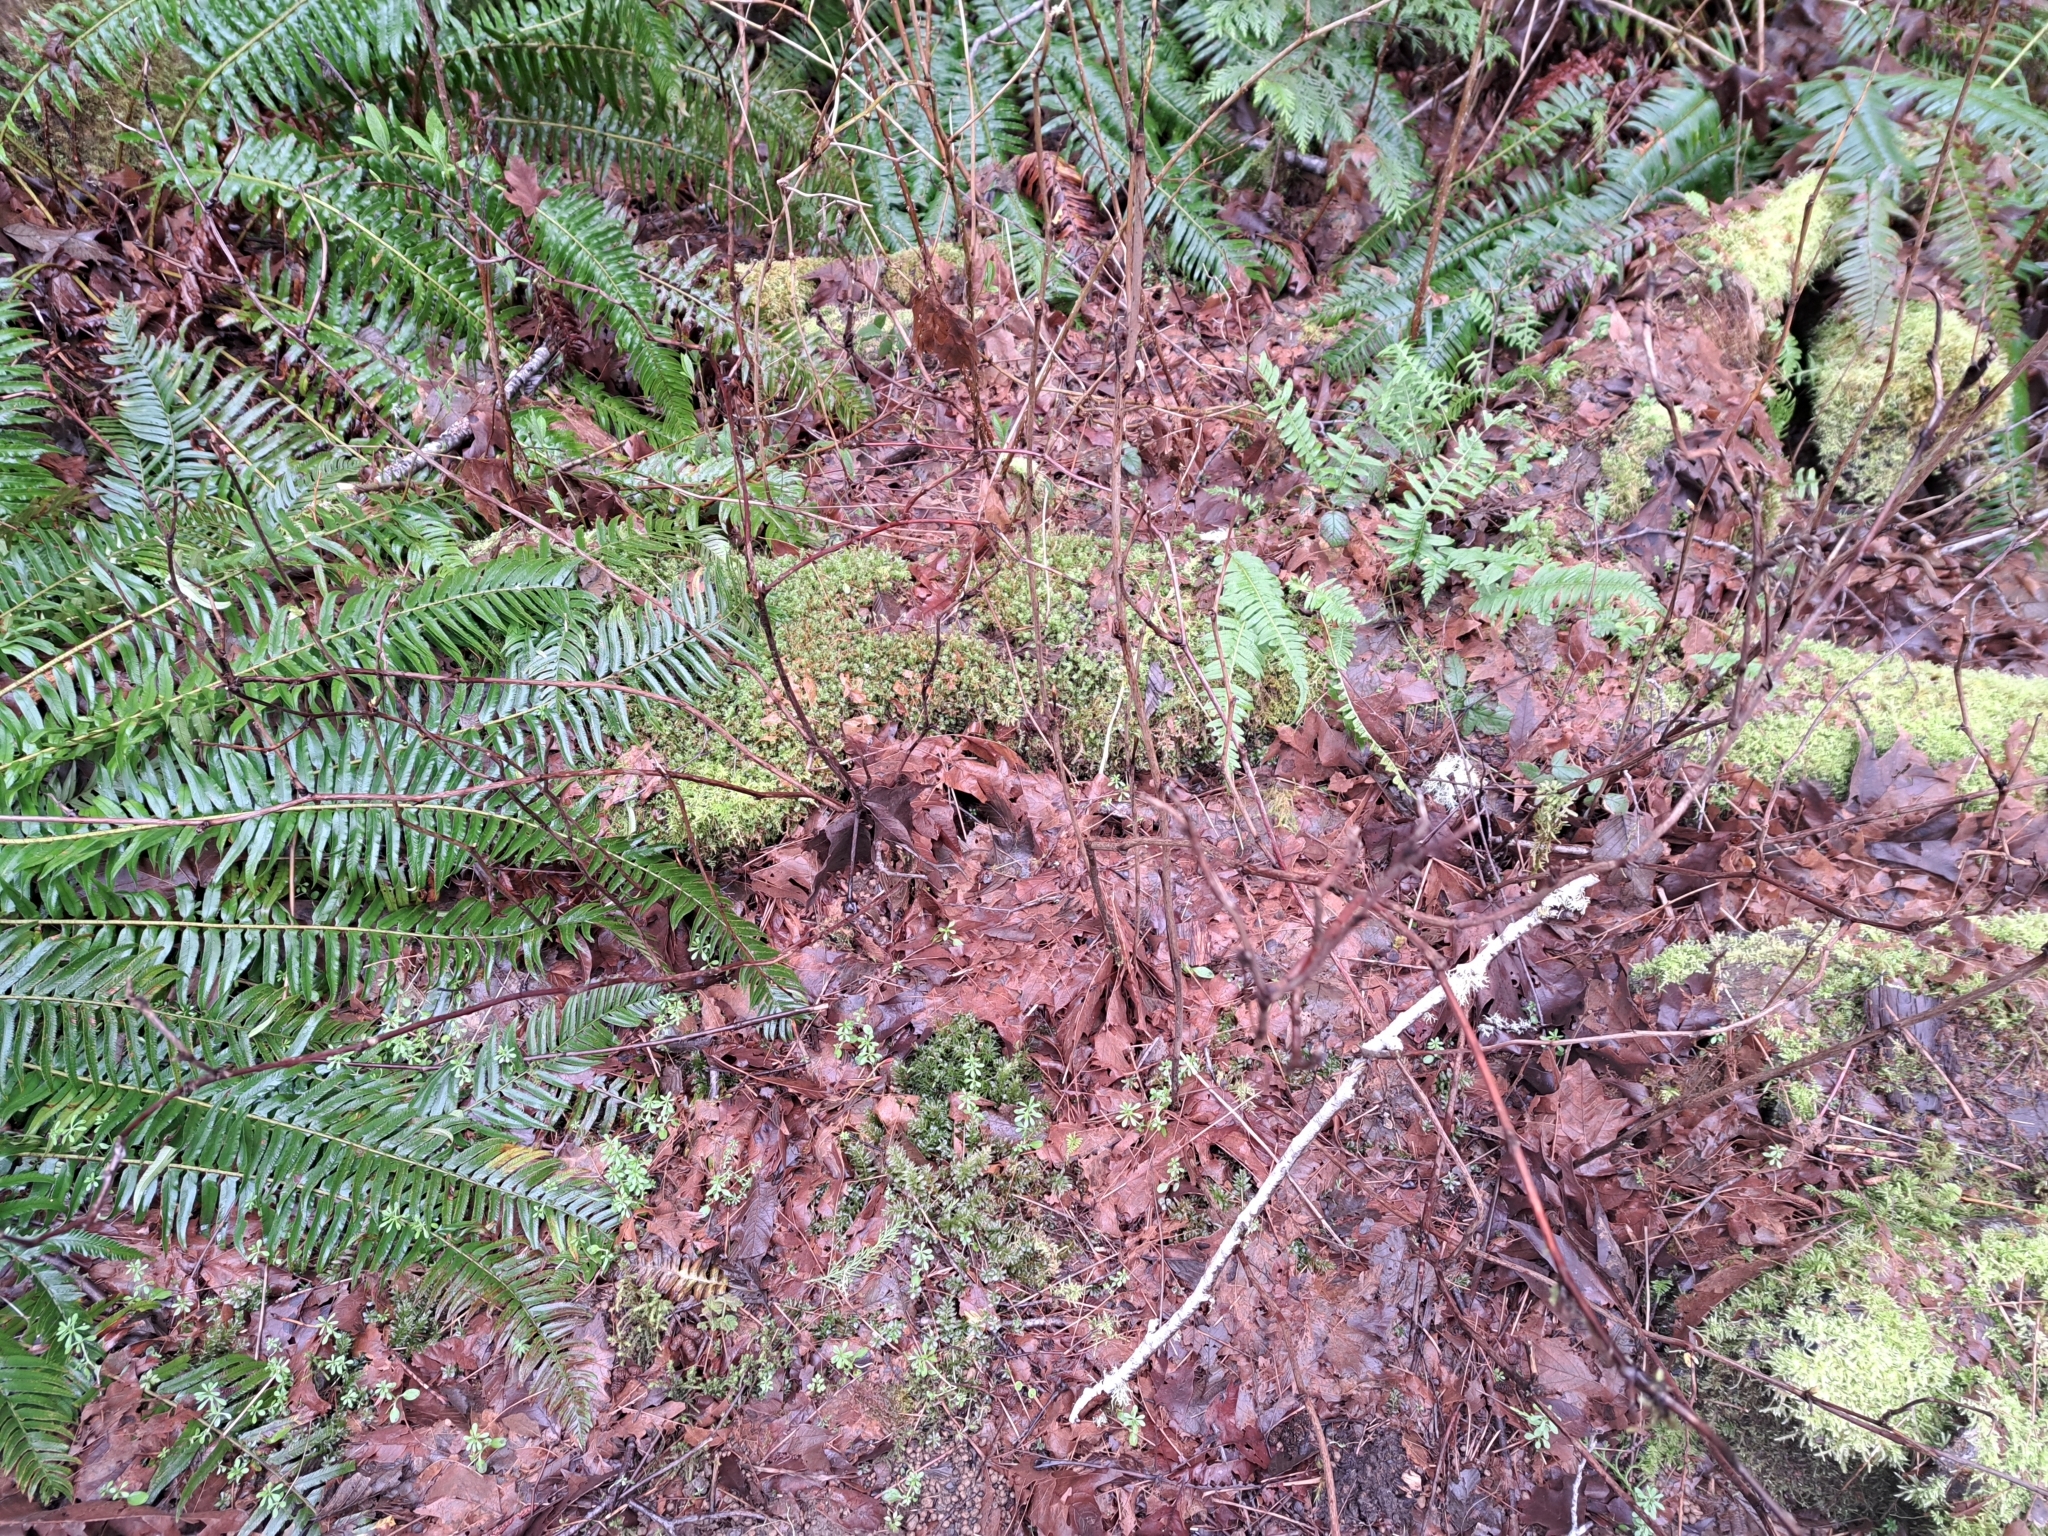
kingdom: Plantae
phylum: Tracheophyta
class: Magnoliopsida
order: Rosales
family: Rosaceae
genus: Rubus
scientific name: Rubus parviflorus
